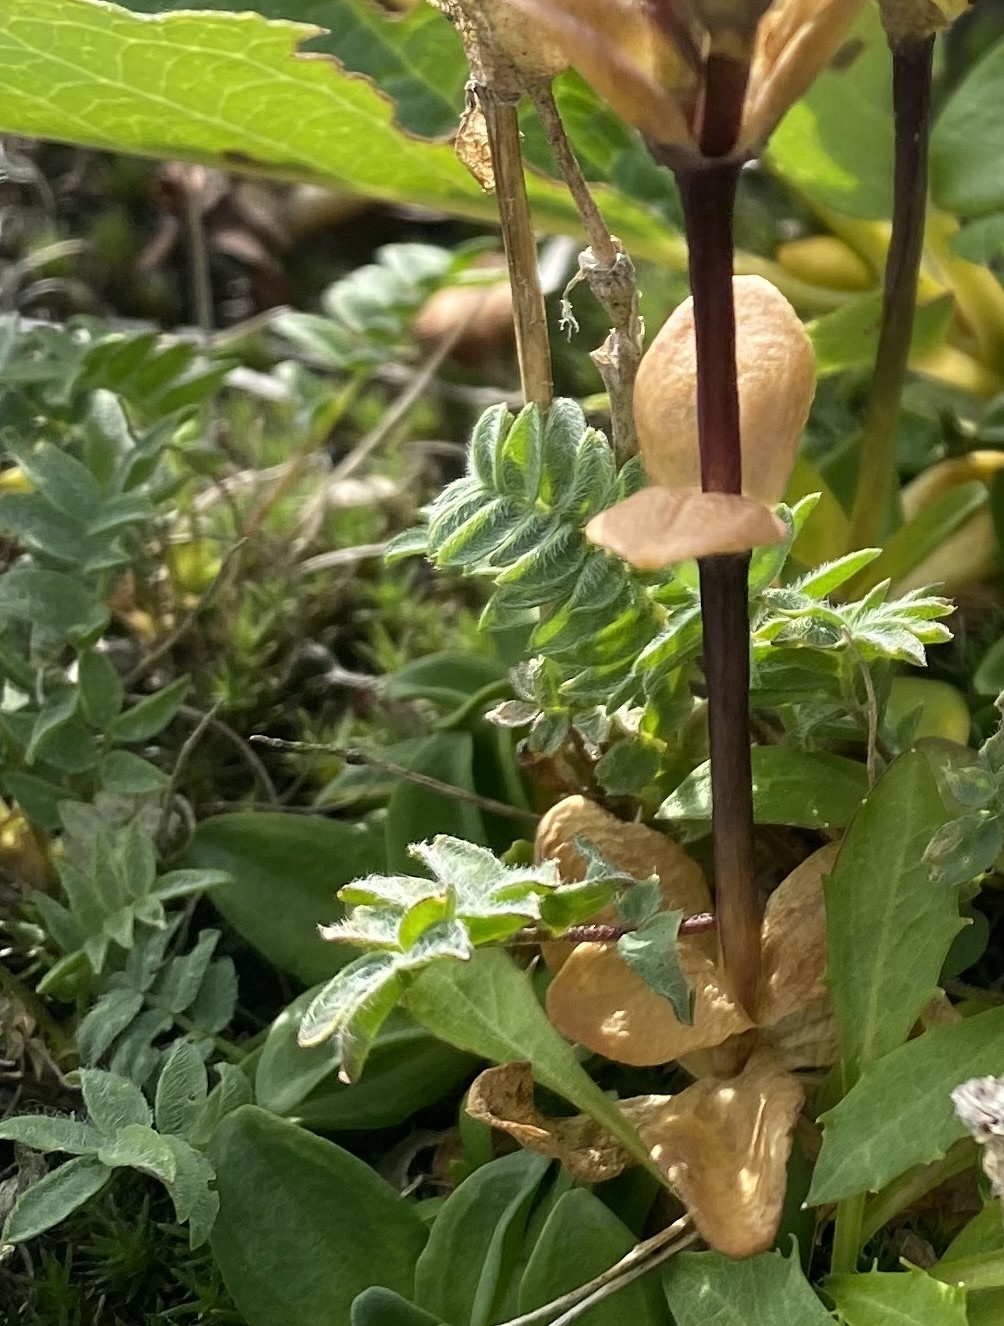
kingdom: Plantae
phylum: Tracheophyta
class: Magnoliopsida
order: Fabales
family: Fabaceae
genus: Oxytropis
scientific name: Oxytropis revoluta
